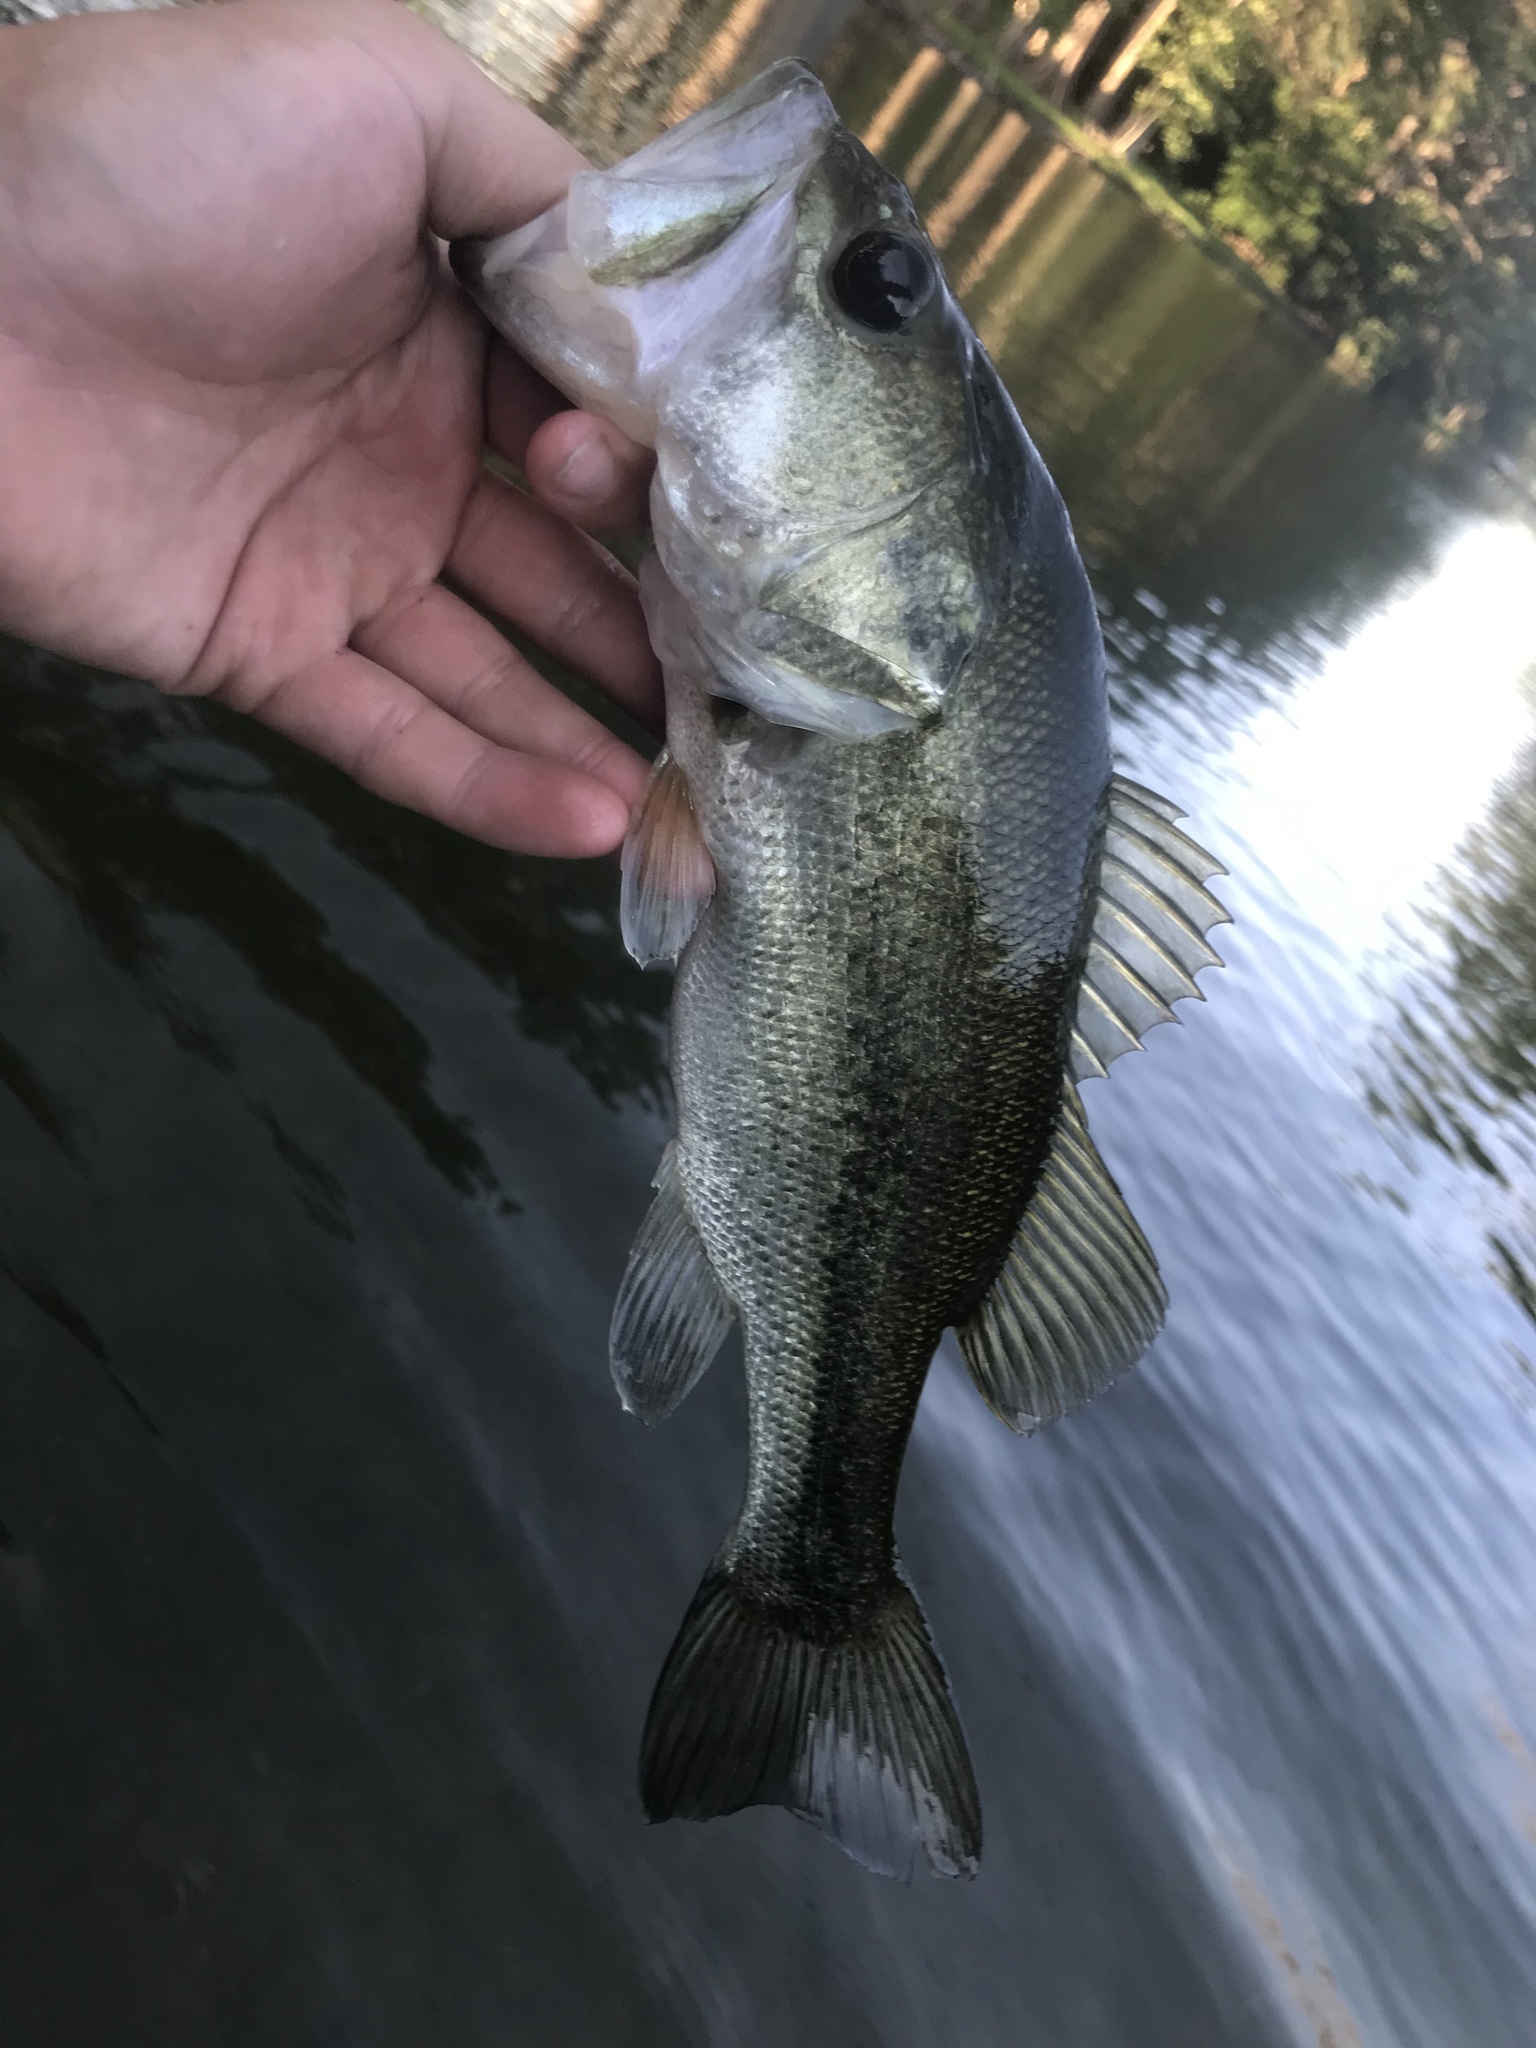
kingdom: Animalia
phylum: Chordata
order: Perciformes
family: Centrarchidae
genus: Micropterus
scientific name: Micropterus
